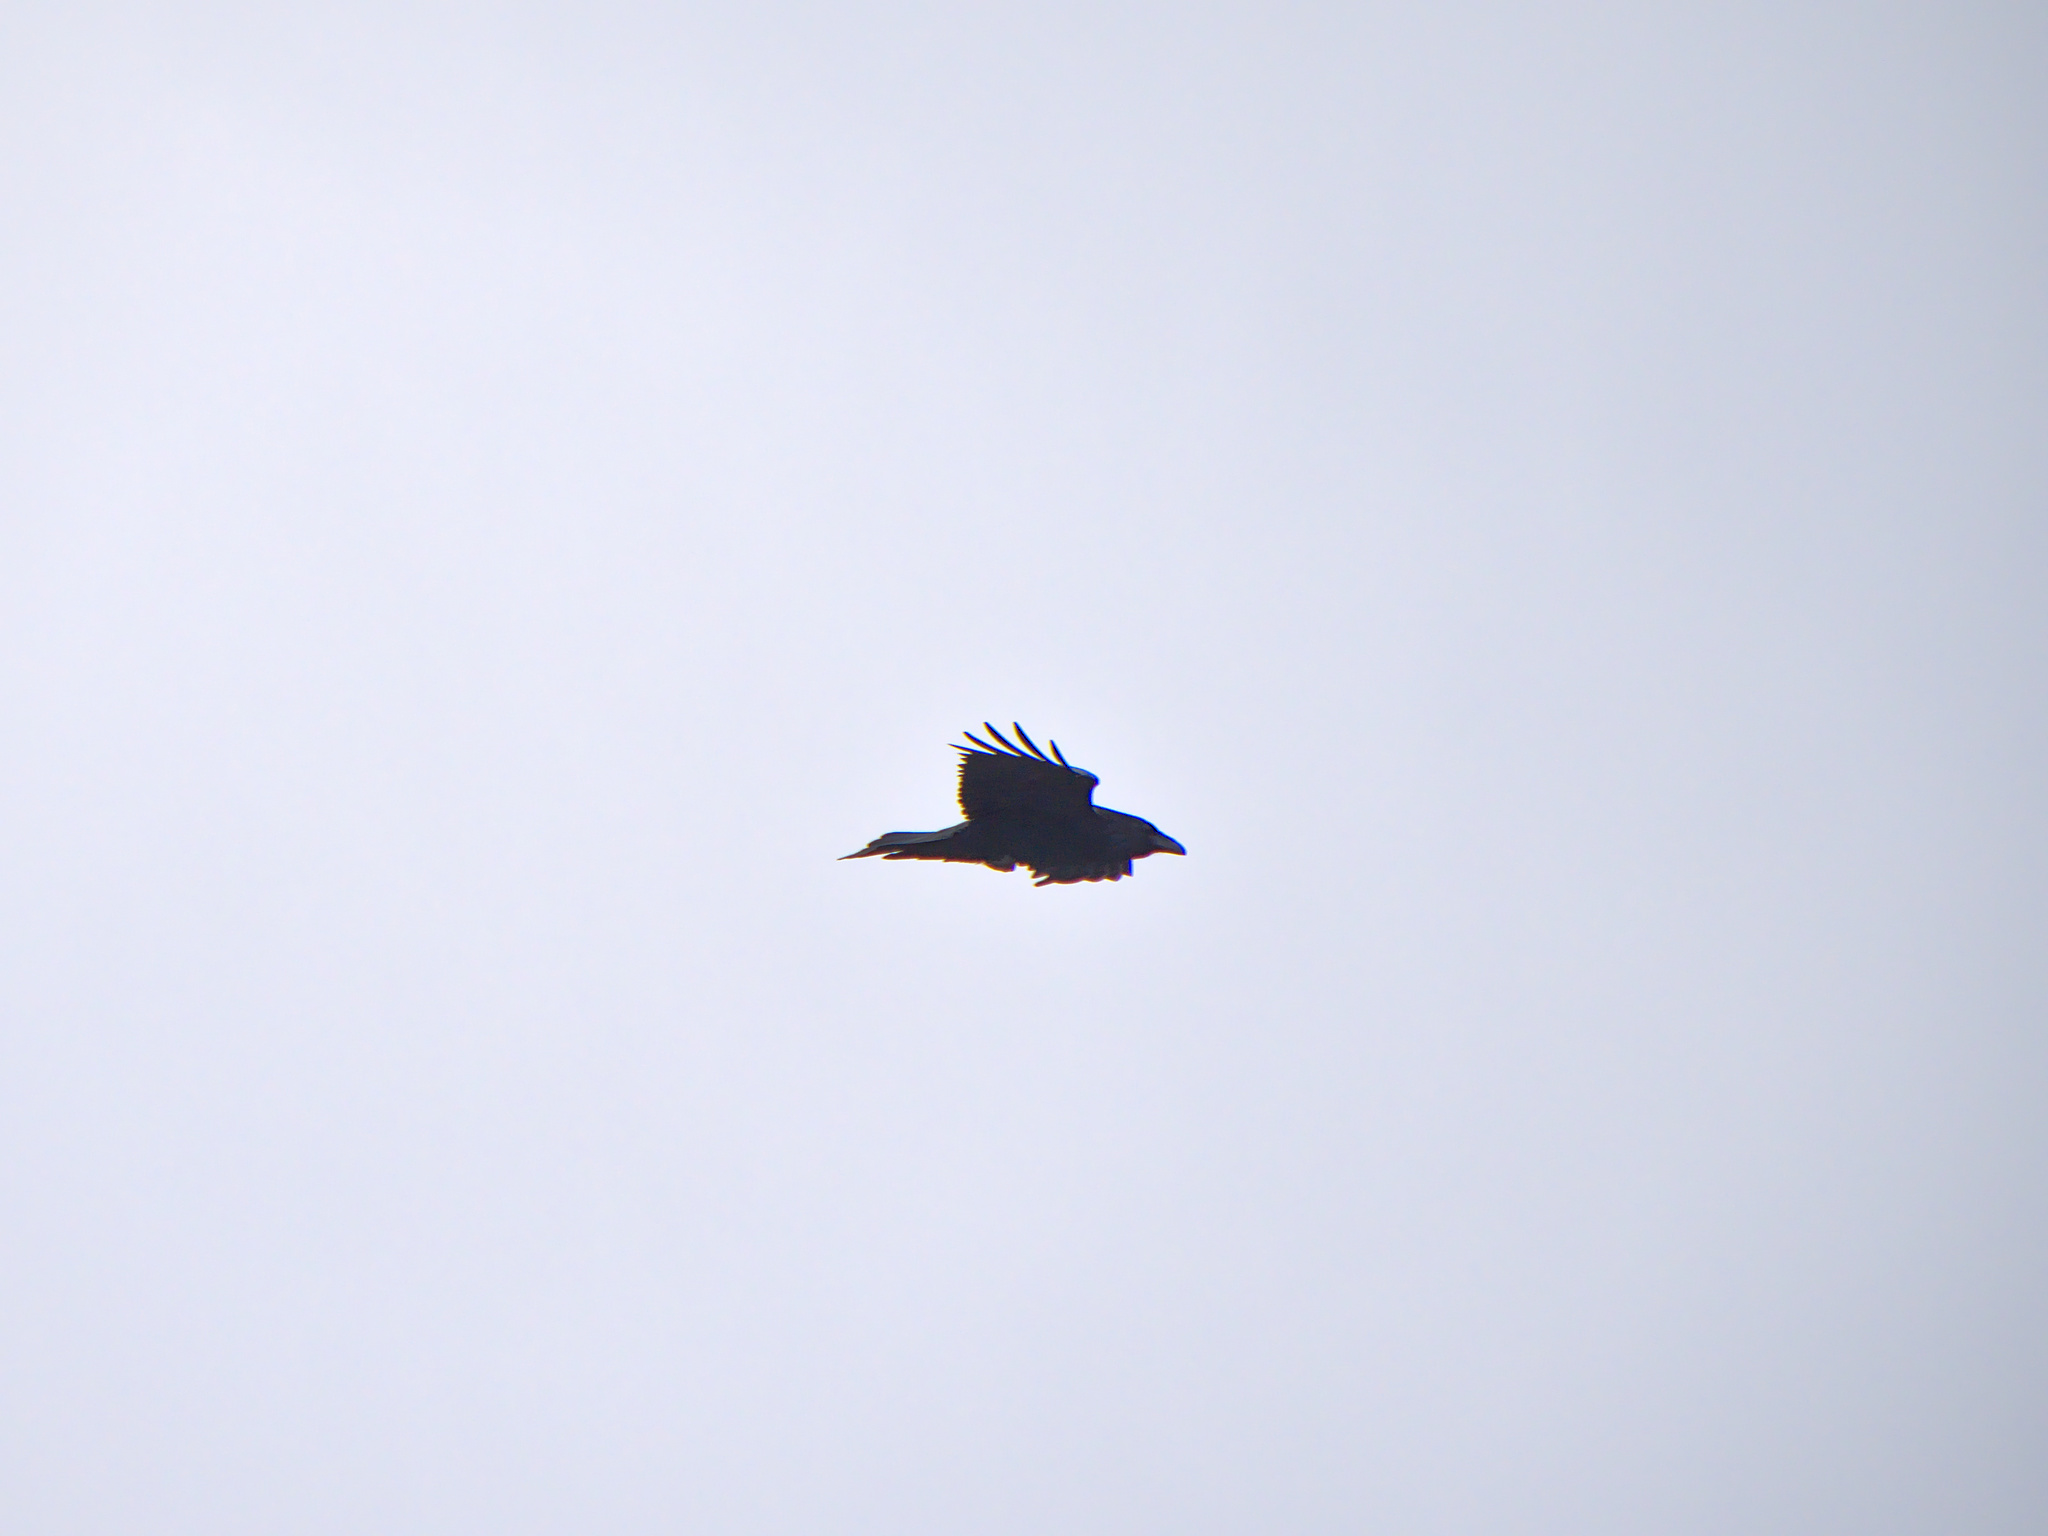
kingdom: Animalia
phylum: Chordata
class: Aves
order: Passeriformes
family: Corvidae
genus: Corvus
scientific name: Corvus corax
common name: Common raven
